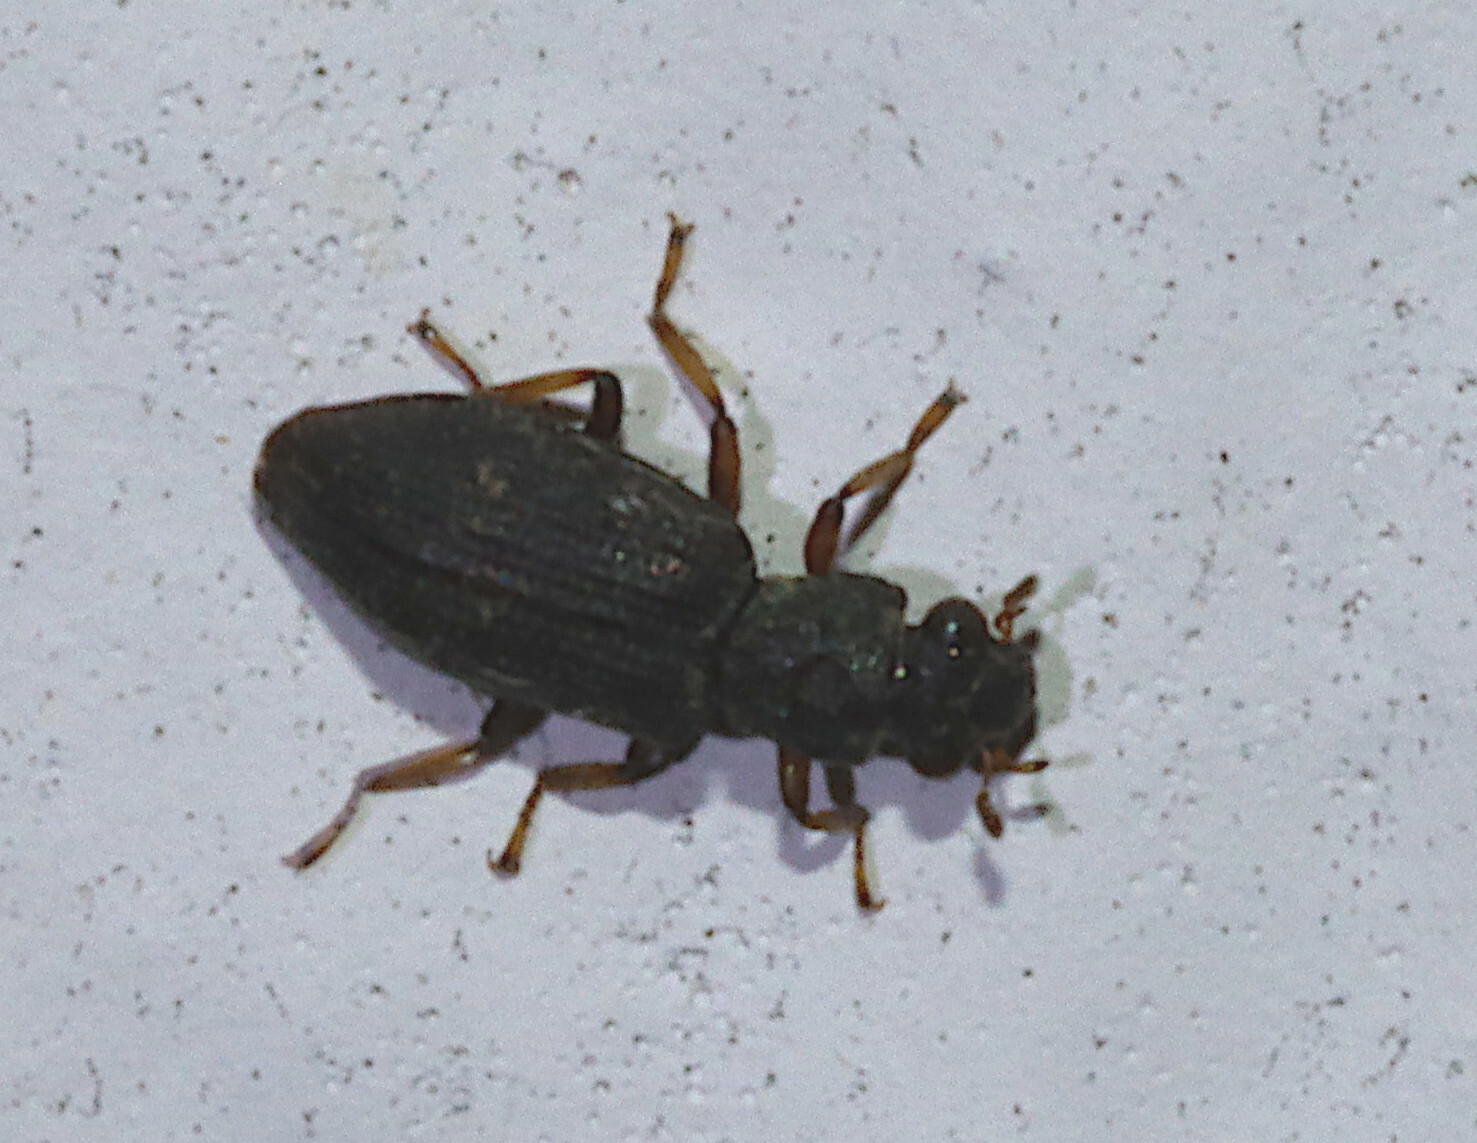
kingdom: Animalia
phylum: Arthropoda
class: Insecta
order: Coleoptera
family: Hydrochidae
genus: Hydrochus
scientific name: Hydrochus
